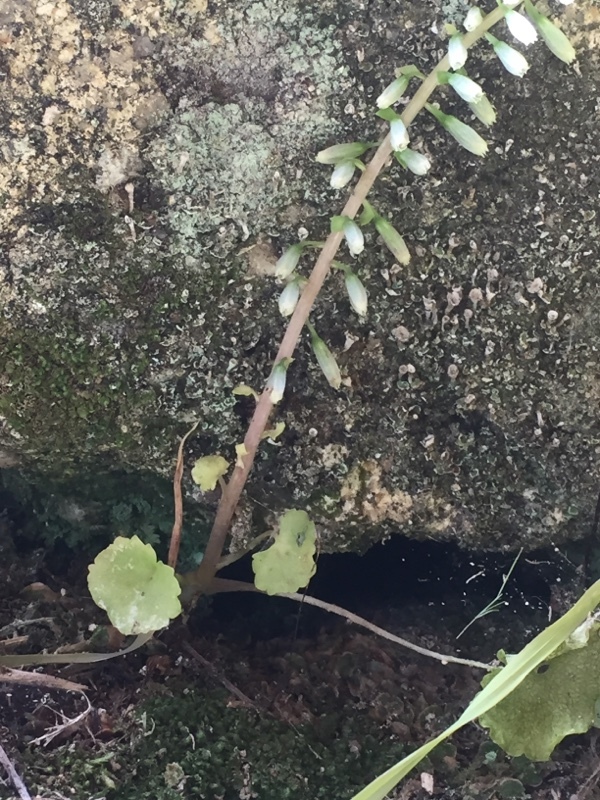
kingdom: Plantae
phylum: Tracheophyta
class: Magnoliopsida
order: Saxifragales
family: Crassulaceae
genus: Umbilicus
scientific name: Umbilicus rupestris
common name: Navelwort
